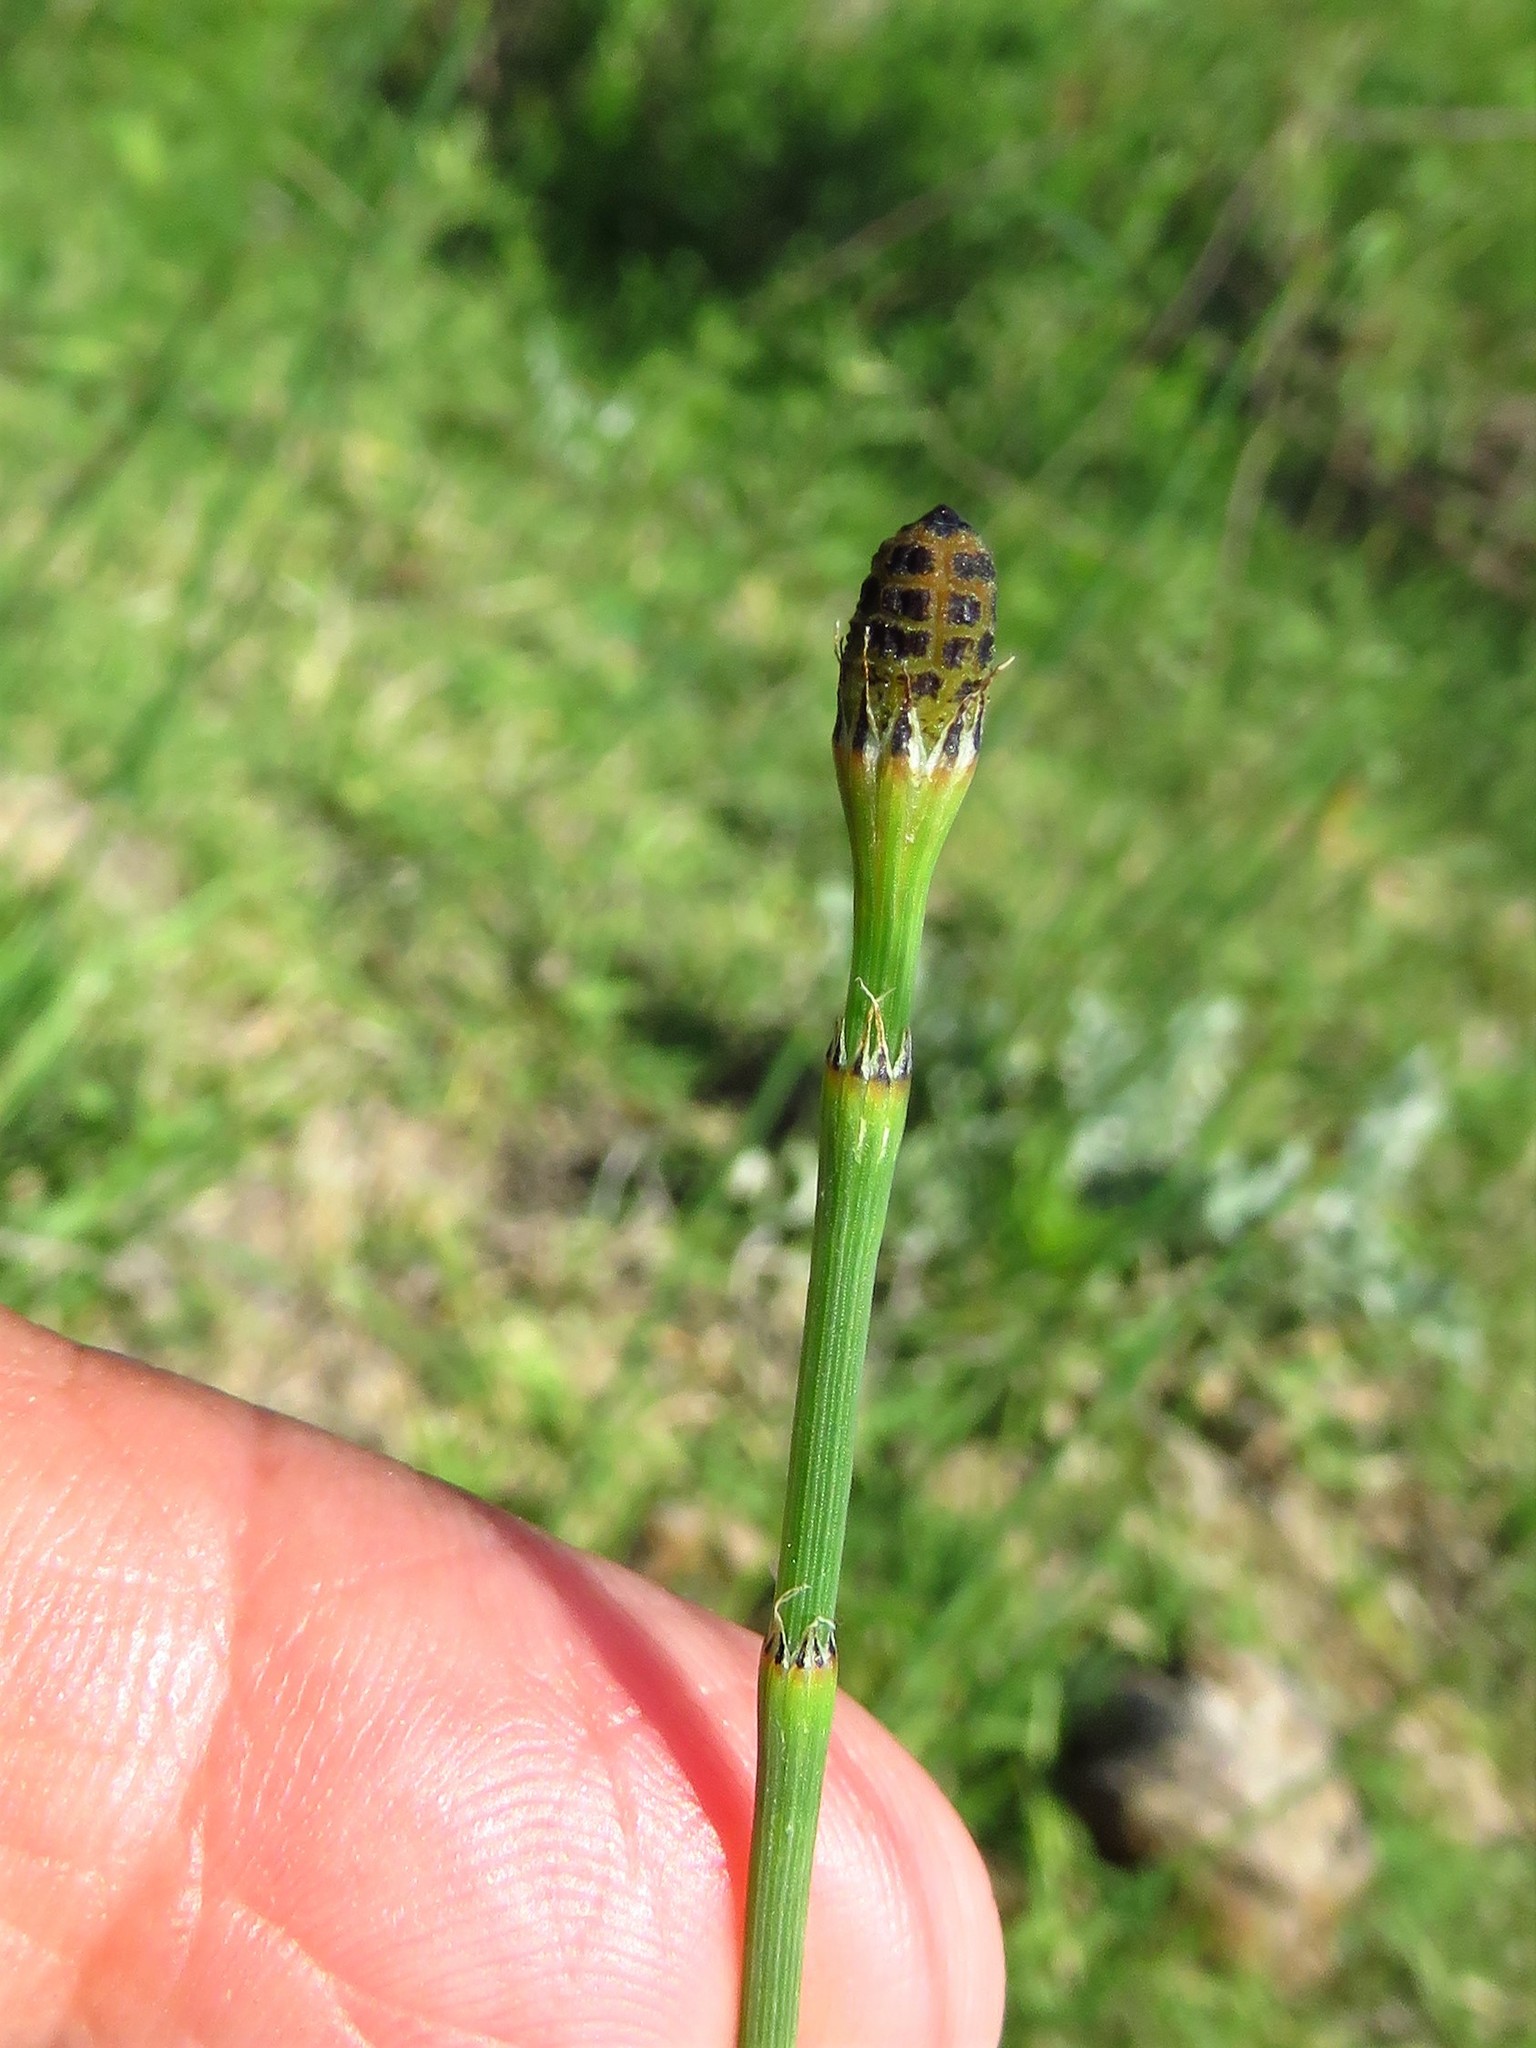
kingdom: Plantae
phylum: Tracheophyta
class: Polypodiopsida
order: Equisetales
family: Equisetaceae
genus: Equisetum
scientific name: Equisetum laevigatum
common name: Smooth scouring-rush
